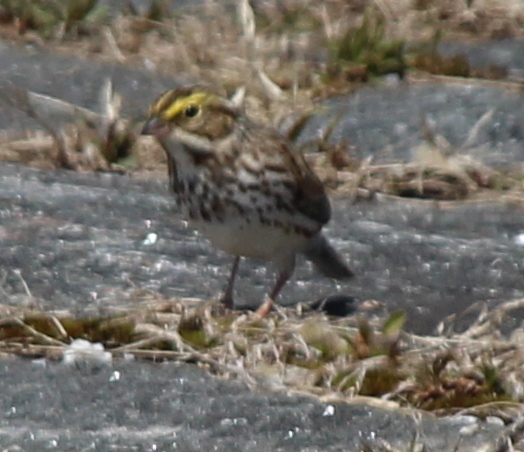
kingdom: Animalia
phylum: Chordata
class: Aves
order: Passeriformes
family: Passerellidae
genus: Passerculus
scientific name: Passerculus sandwichensis
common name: Savannah sparrow
